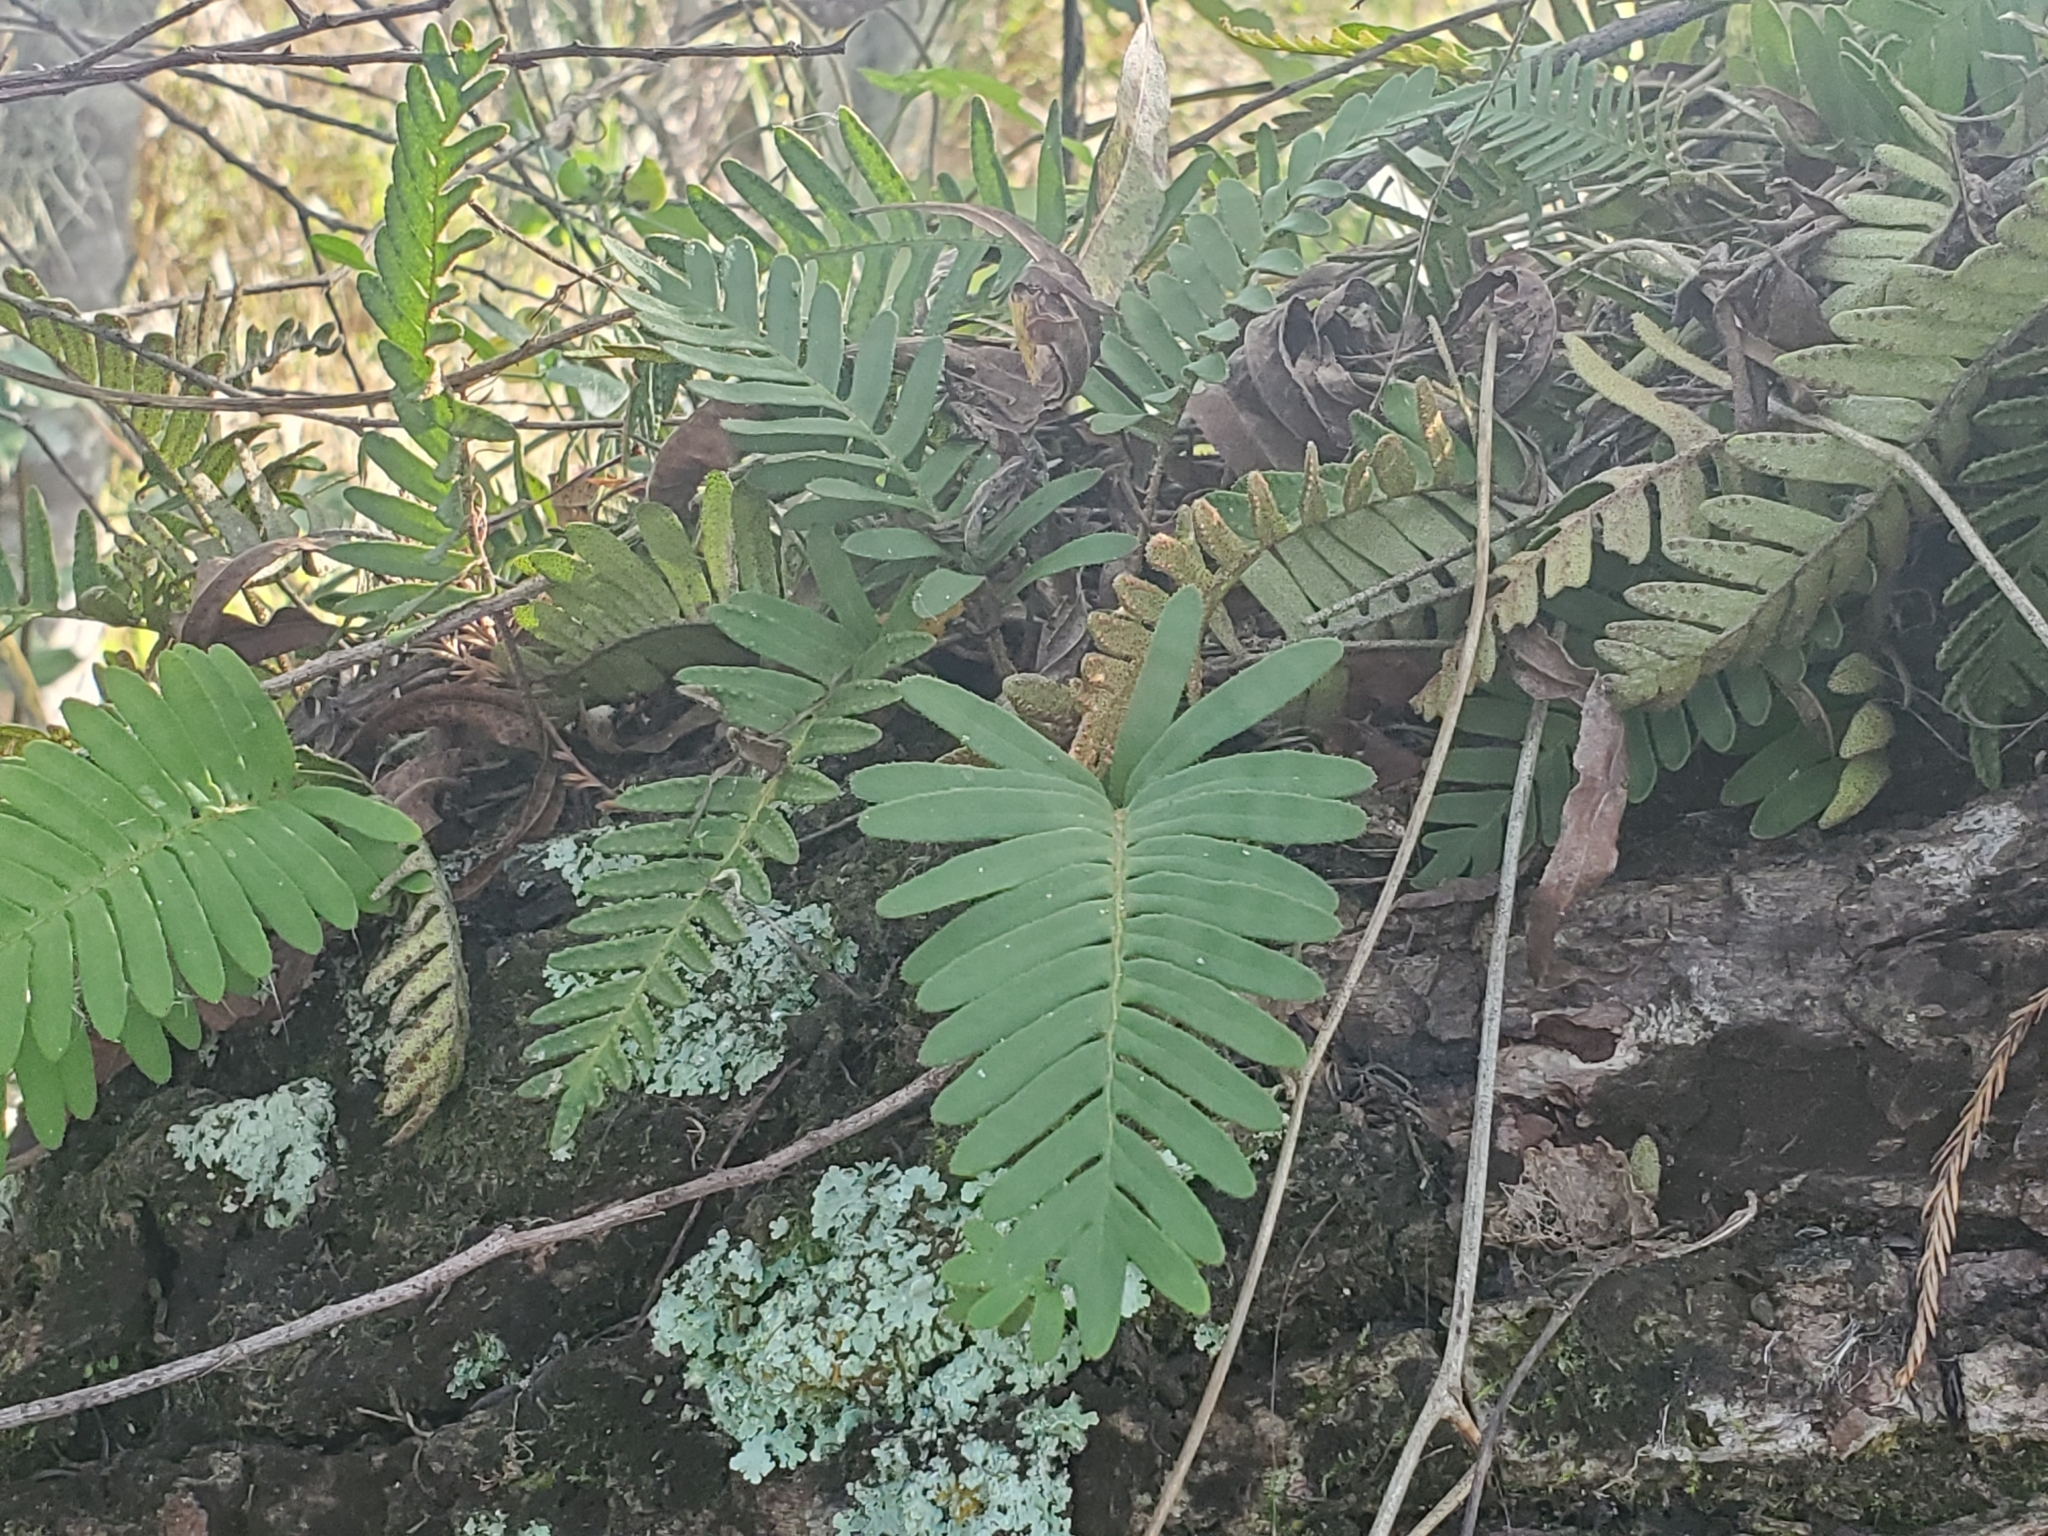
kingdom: Plantae
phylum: Tracheophyta
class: Polypodiopsida
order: Polypodiales
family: Polypodiaceae
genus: Pleopeltis
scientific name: Pleopeltis michauxiana
